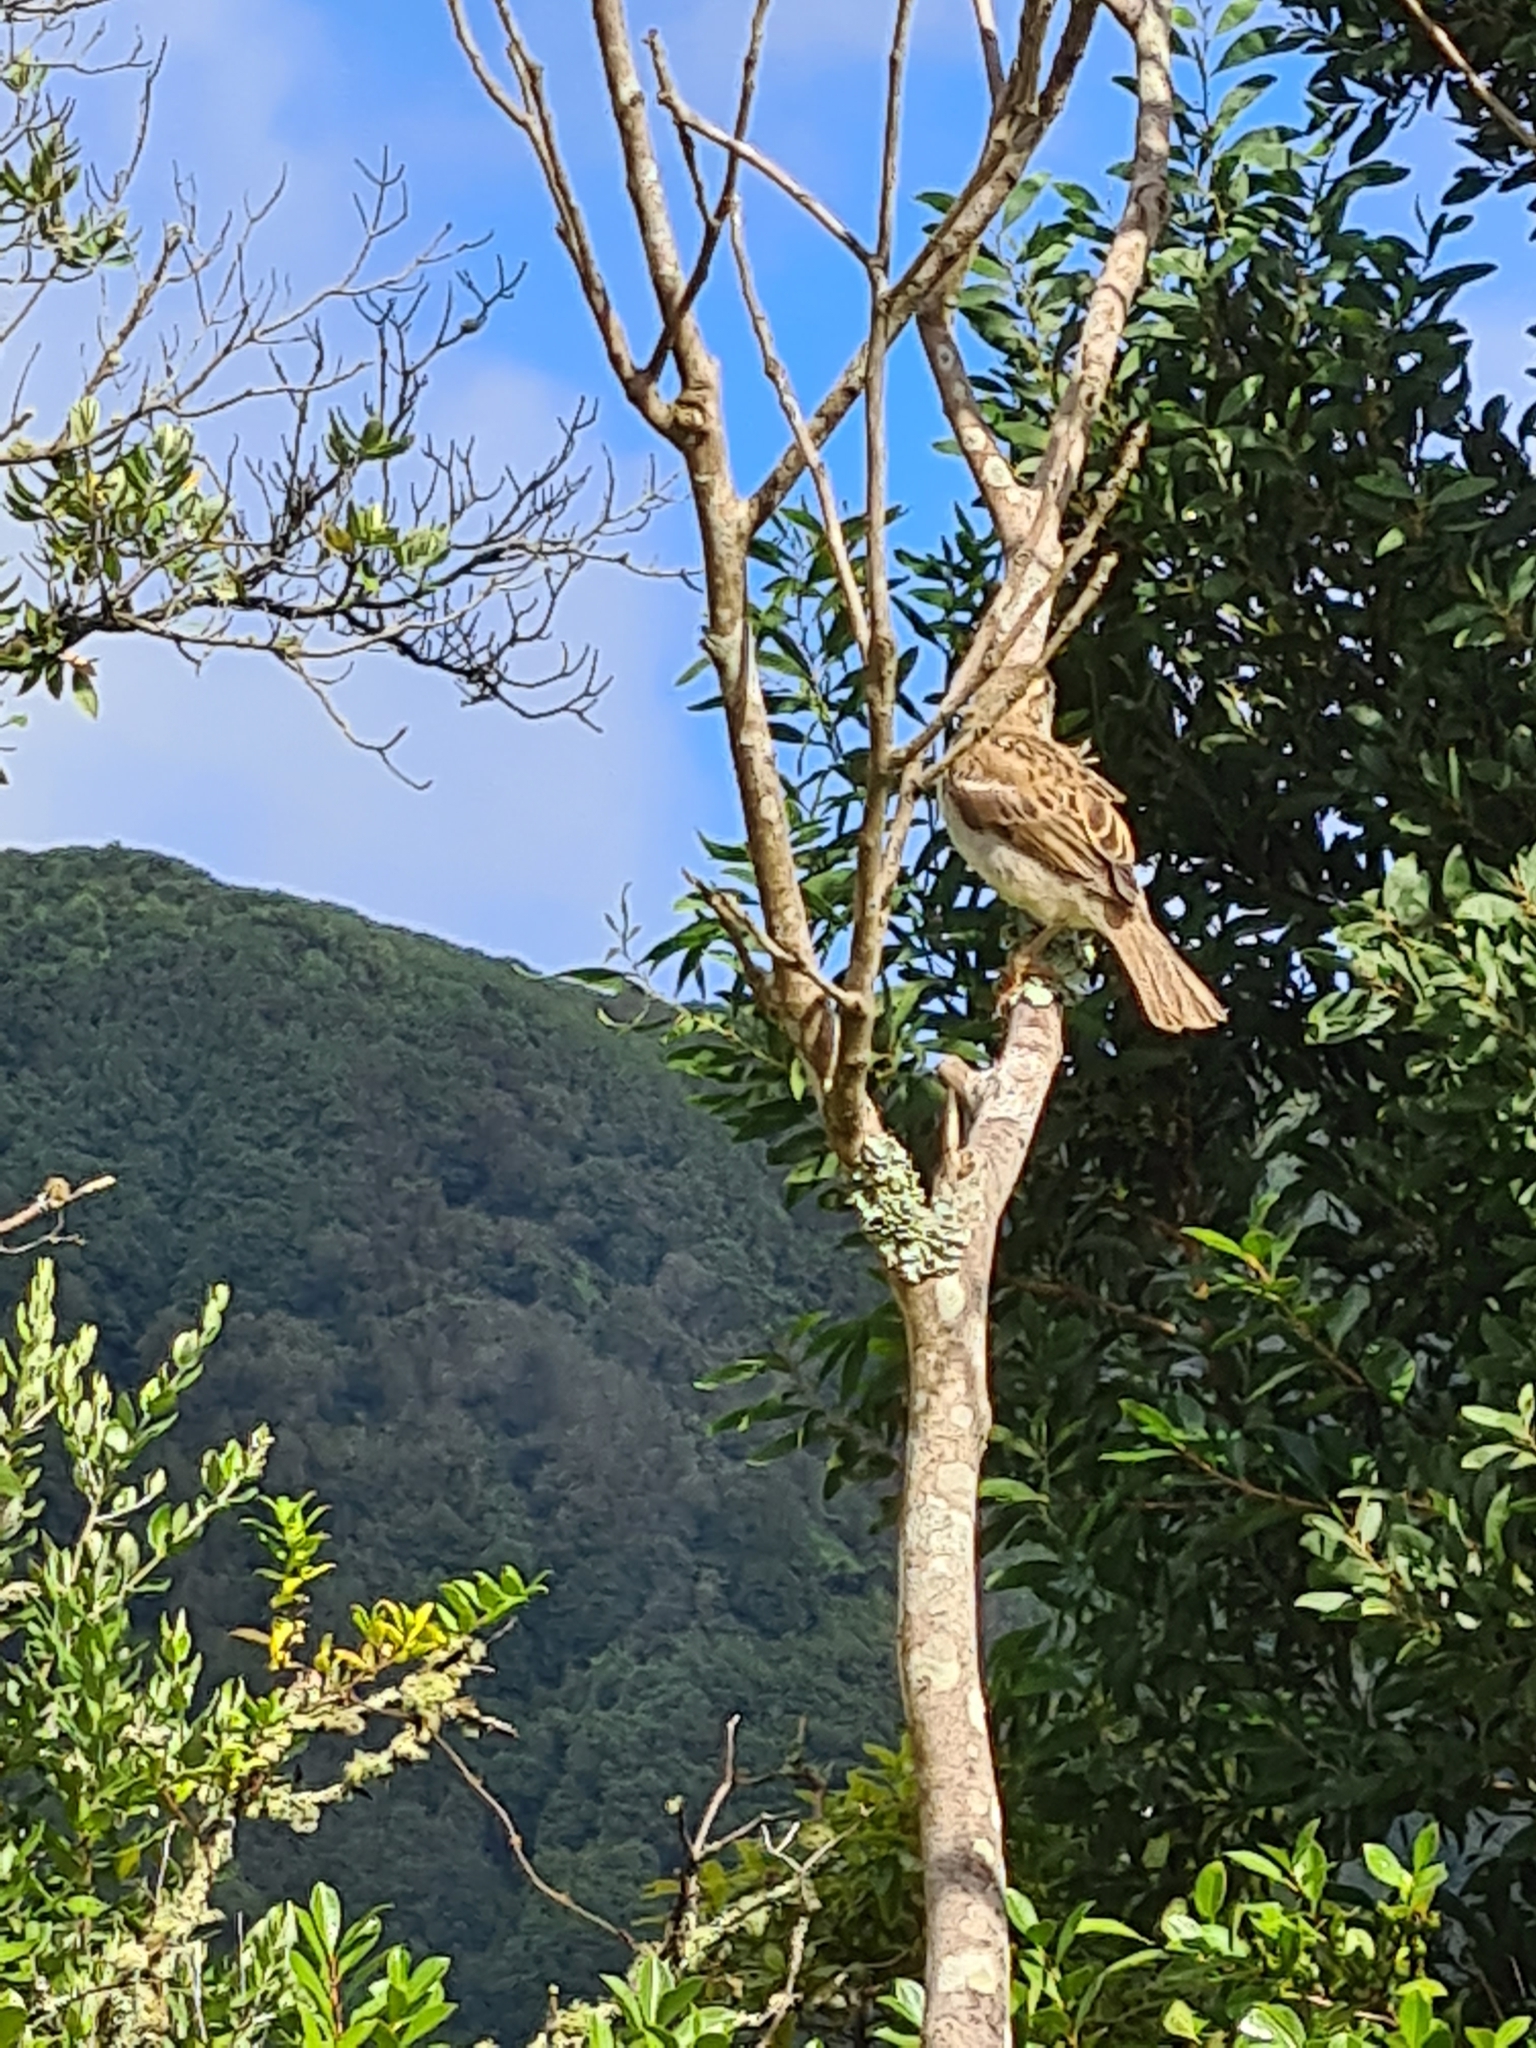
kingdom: Animalia
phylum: Chordata
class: Aves
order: Passeriformes
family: Passeridae
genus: Passer
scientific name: Passer domesticus
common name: House sparrow
